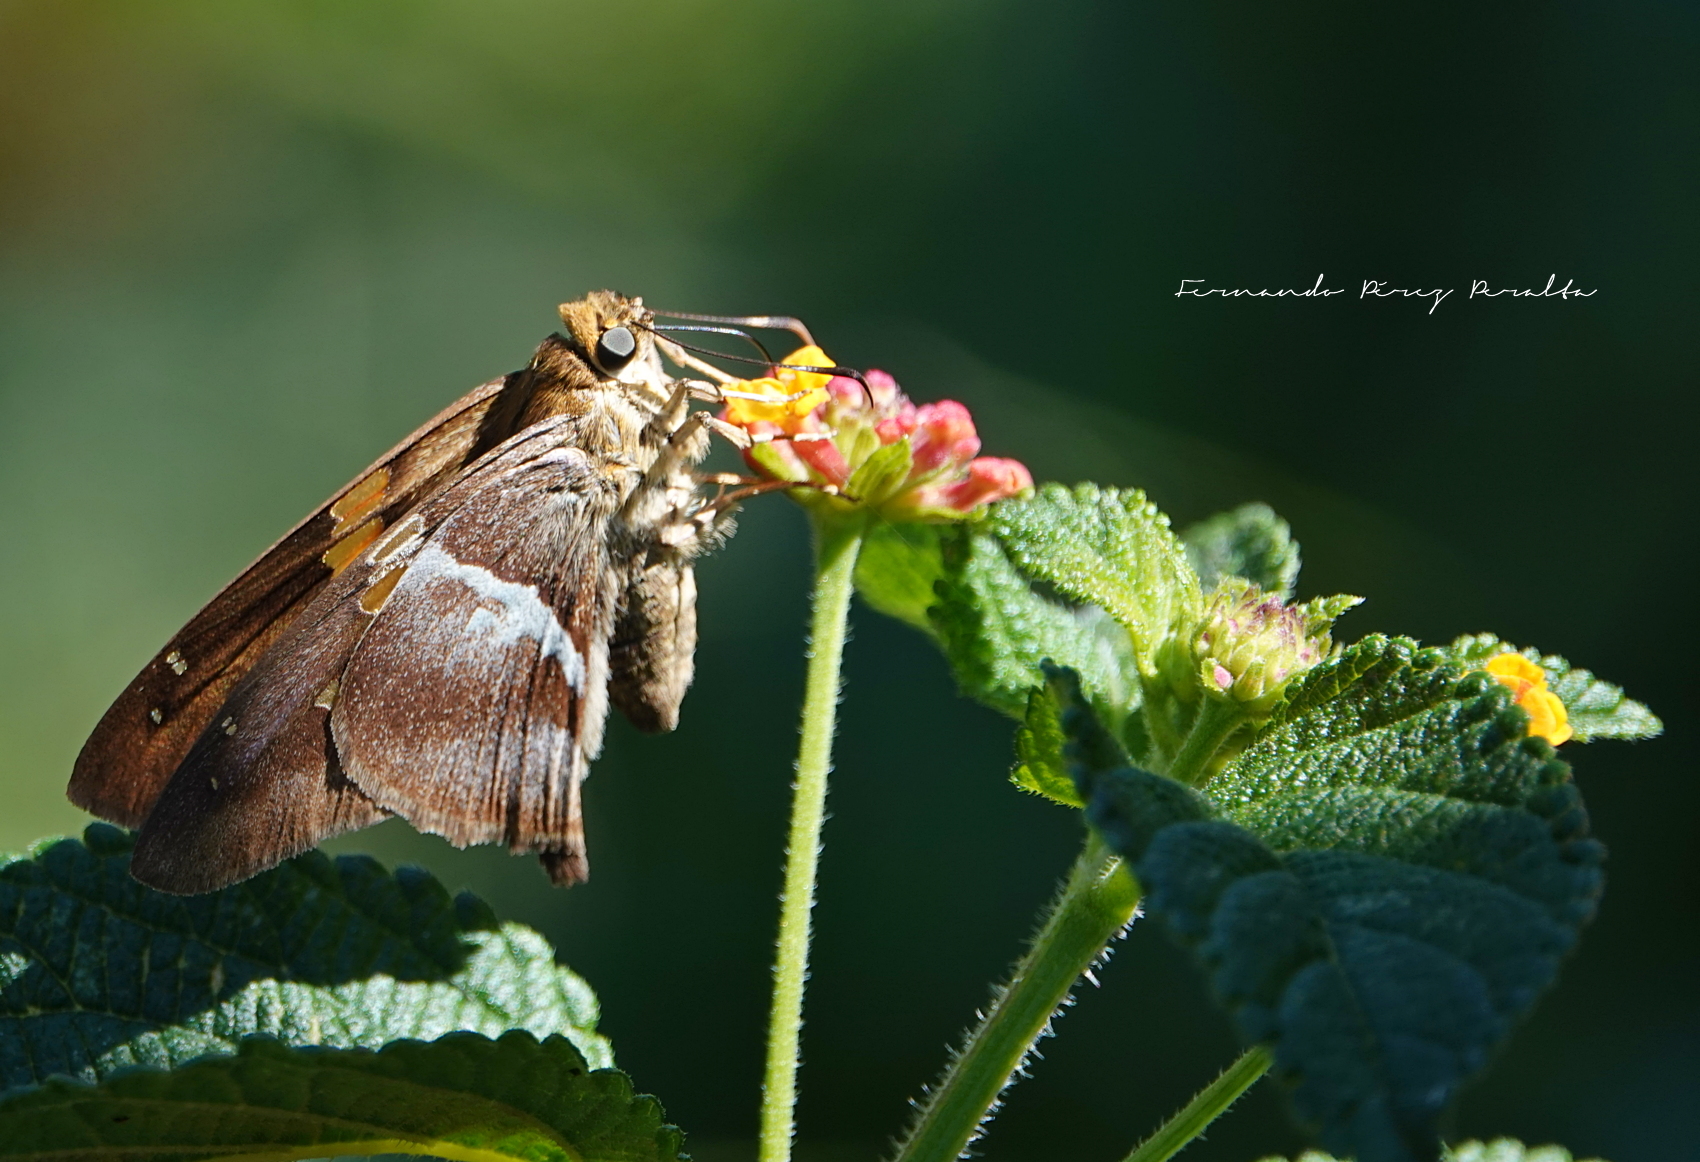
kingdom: Animalia
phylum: Arthropoda
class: Insecta
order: Lepidoptera
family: Hesperiidae
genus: Aguna
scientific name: Aguna asander
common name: Gold-spotted aguna
